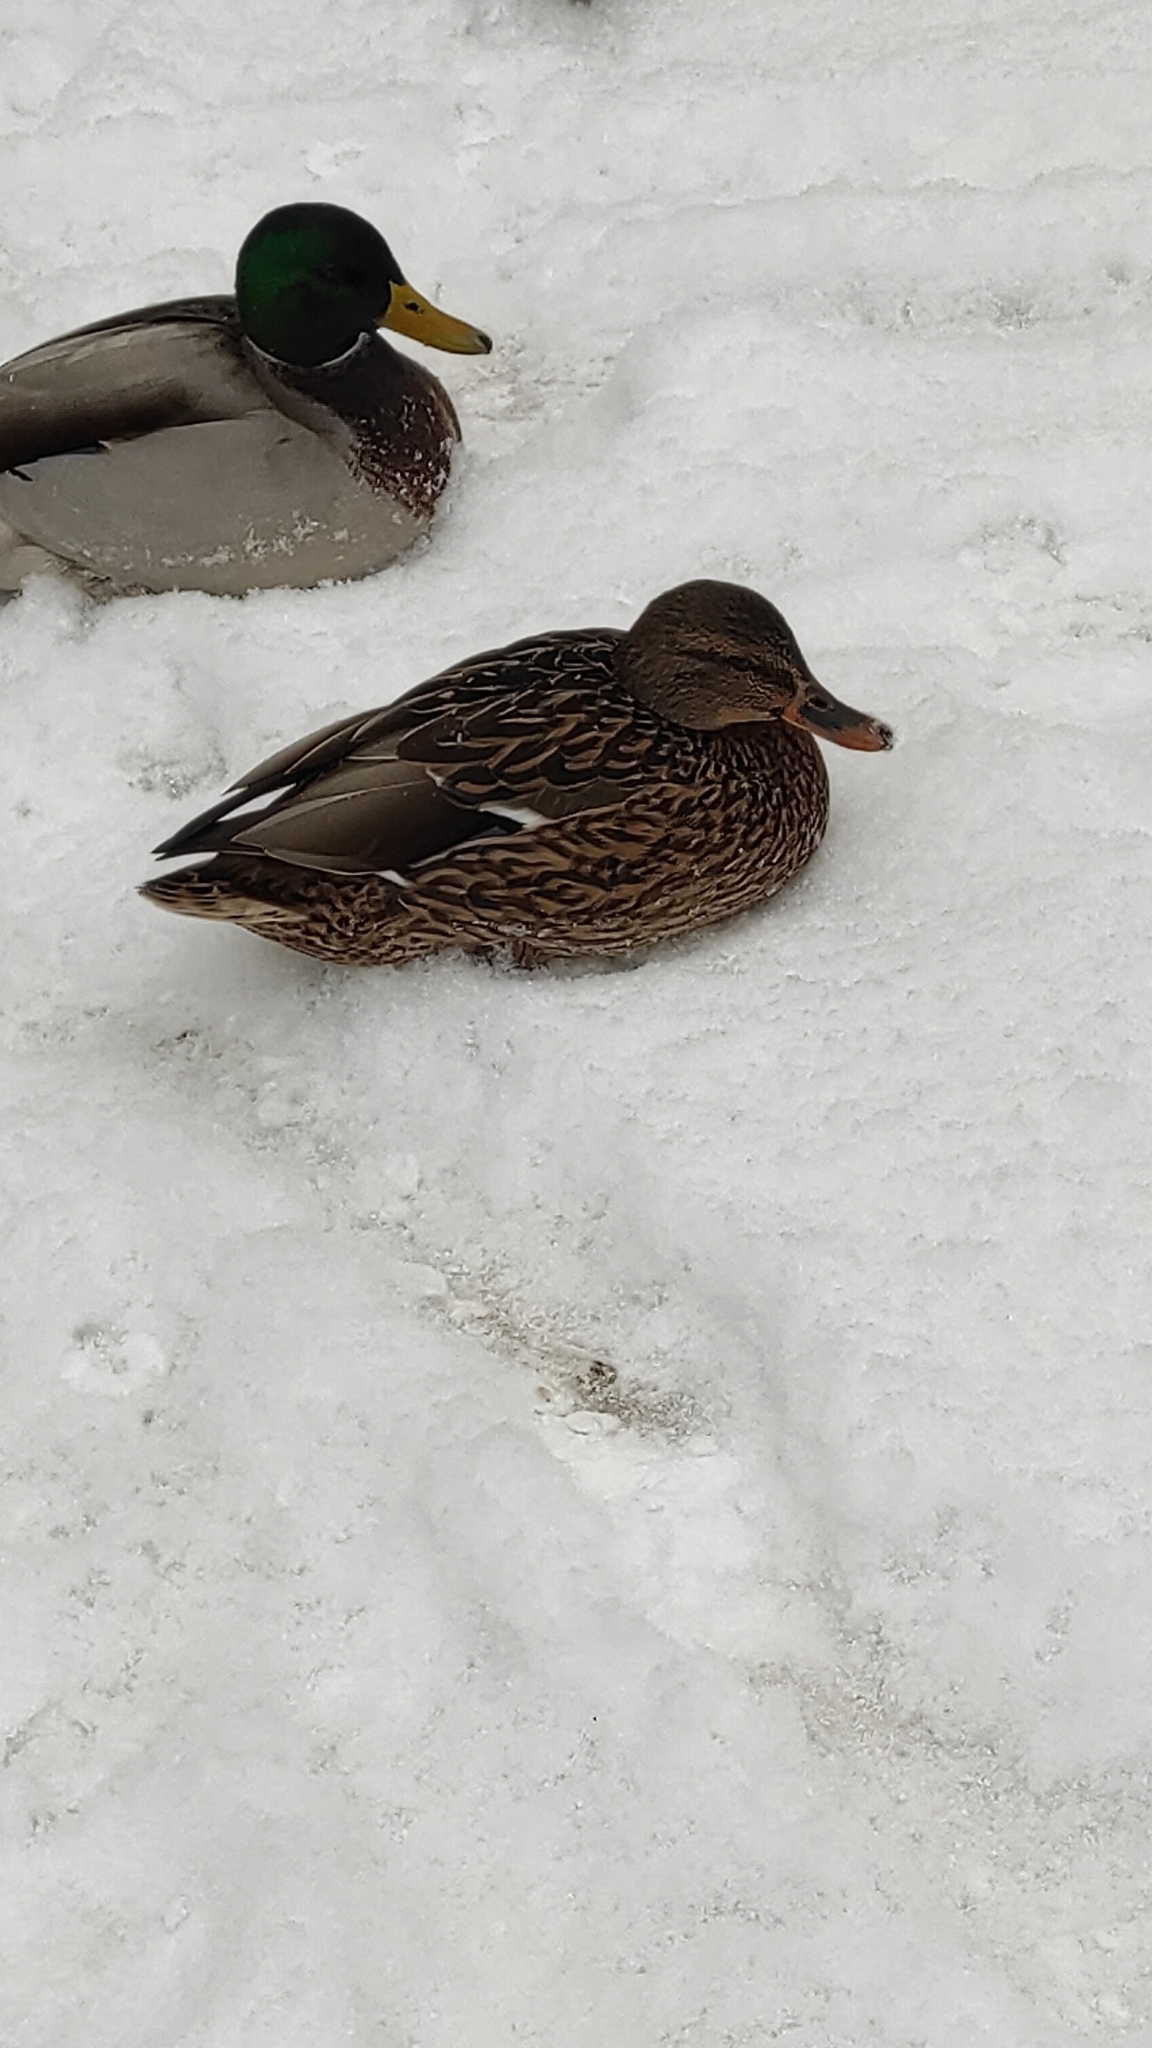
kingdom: Animalia
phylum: Chordata
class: Aves
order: Anseriformes
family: Anatidae
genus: Anas
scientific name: Anas platyrhynchos
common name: Mallard
